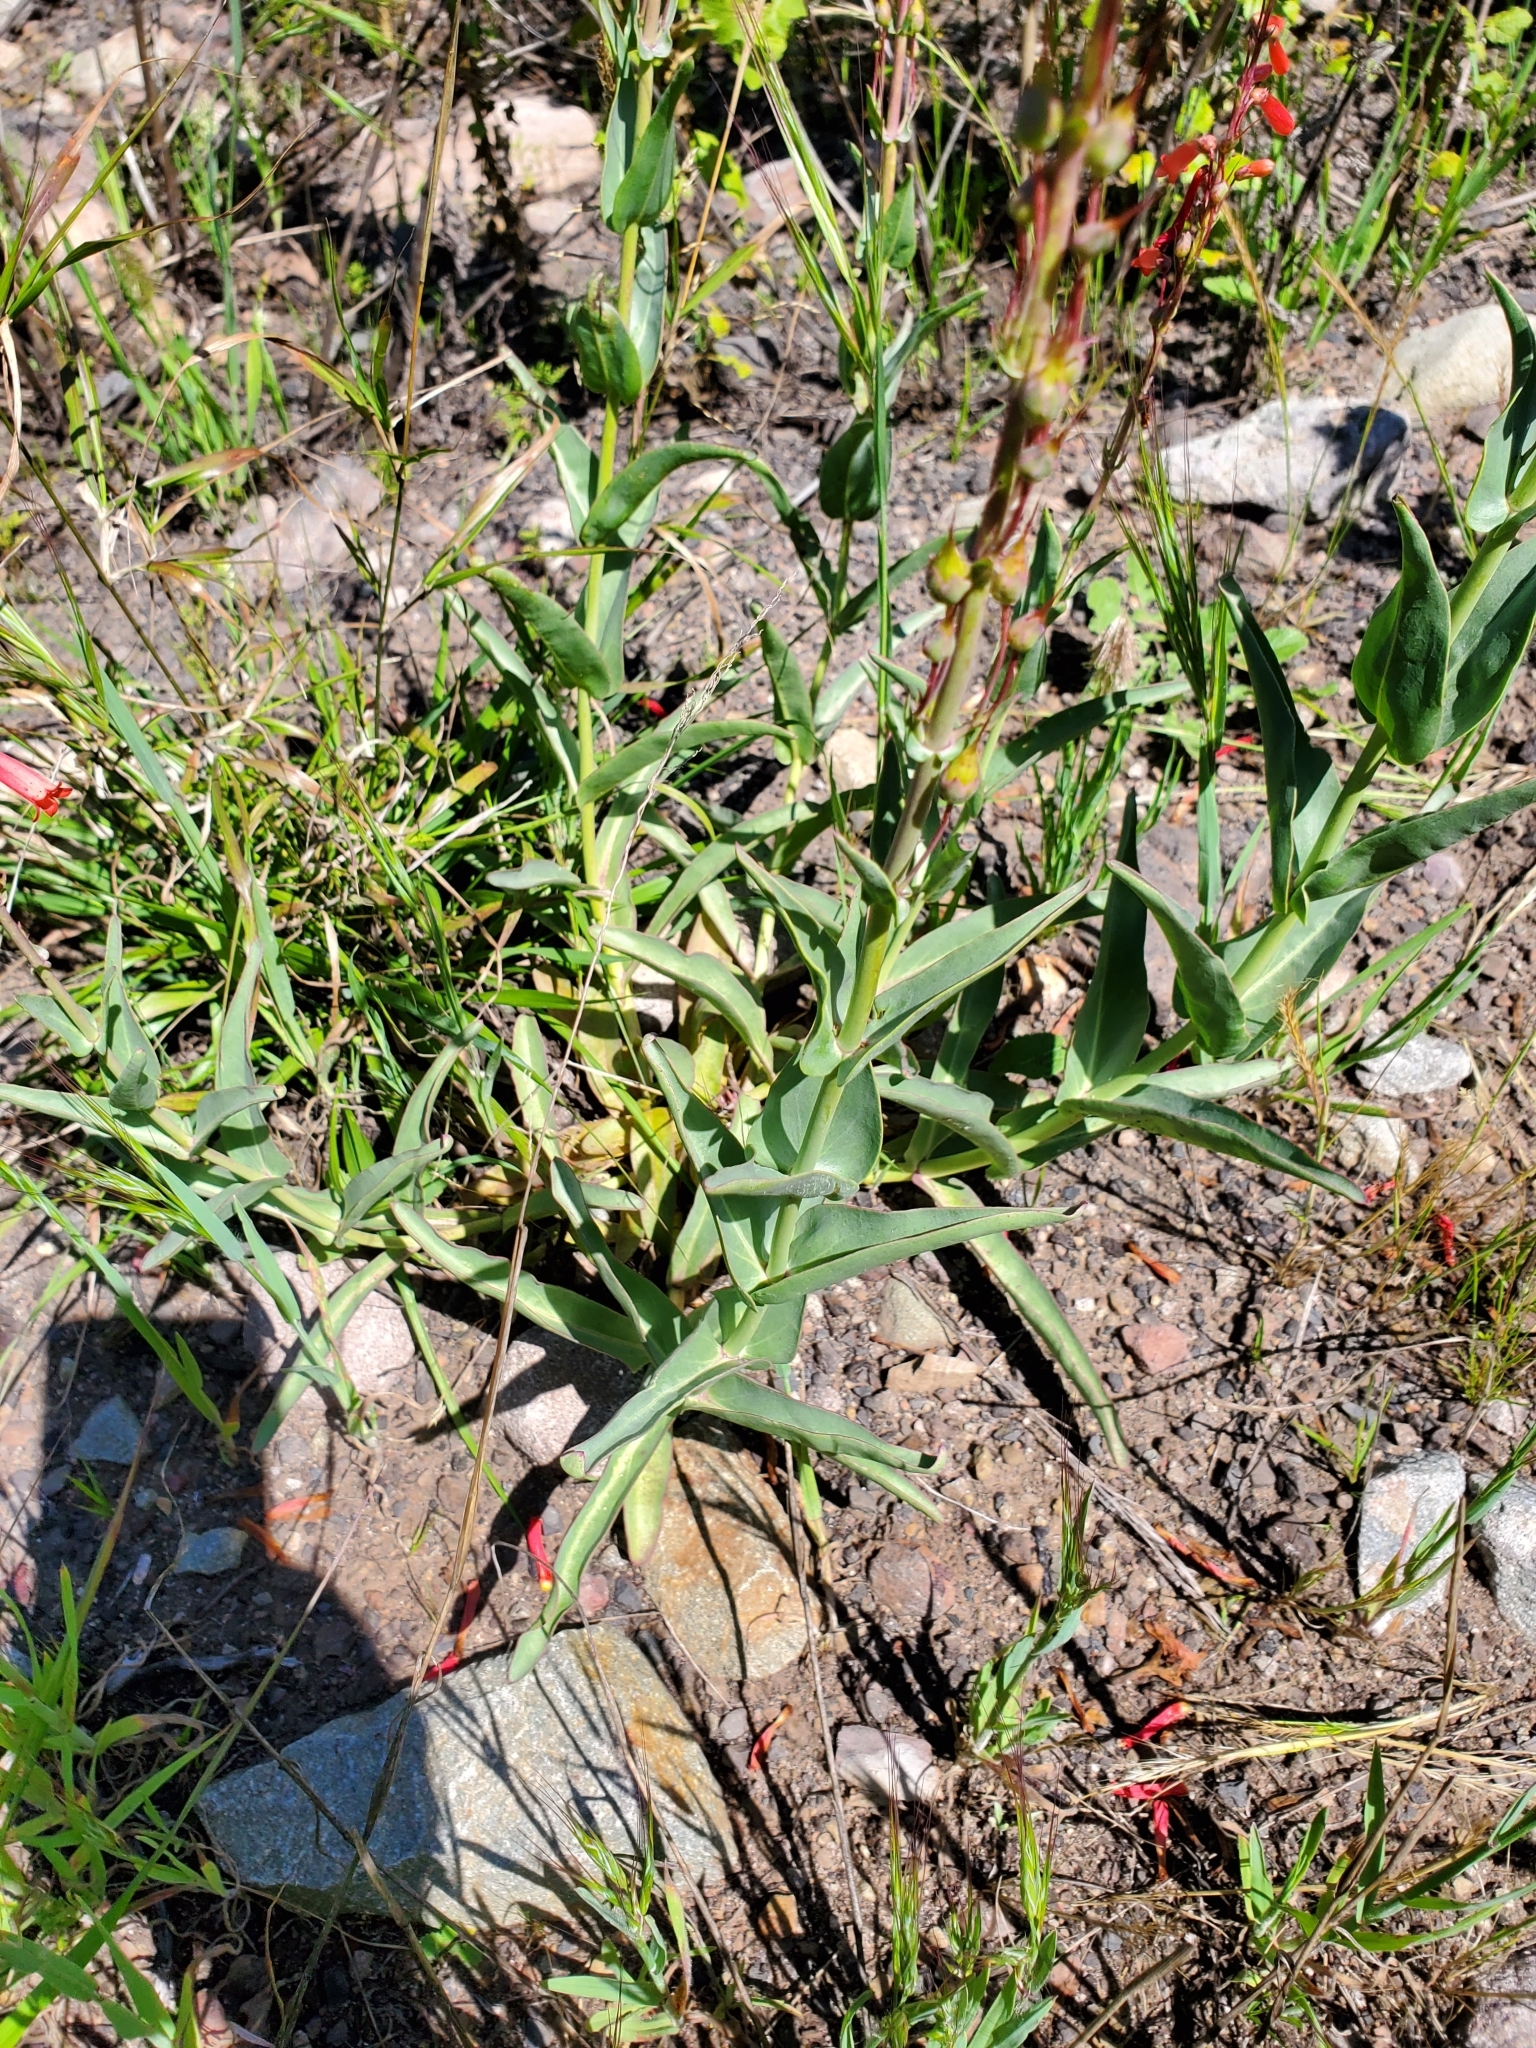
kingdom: Plantae
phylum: Tracheophyta
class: Magnoliopsida
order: Lamiales
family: Plantaginaceae
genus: Penstemon
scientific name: Penstemon centranthifolius
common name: Scarlet bugler
